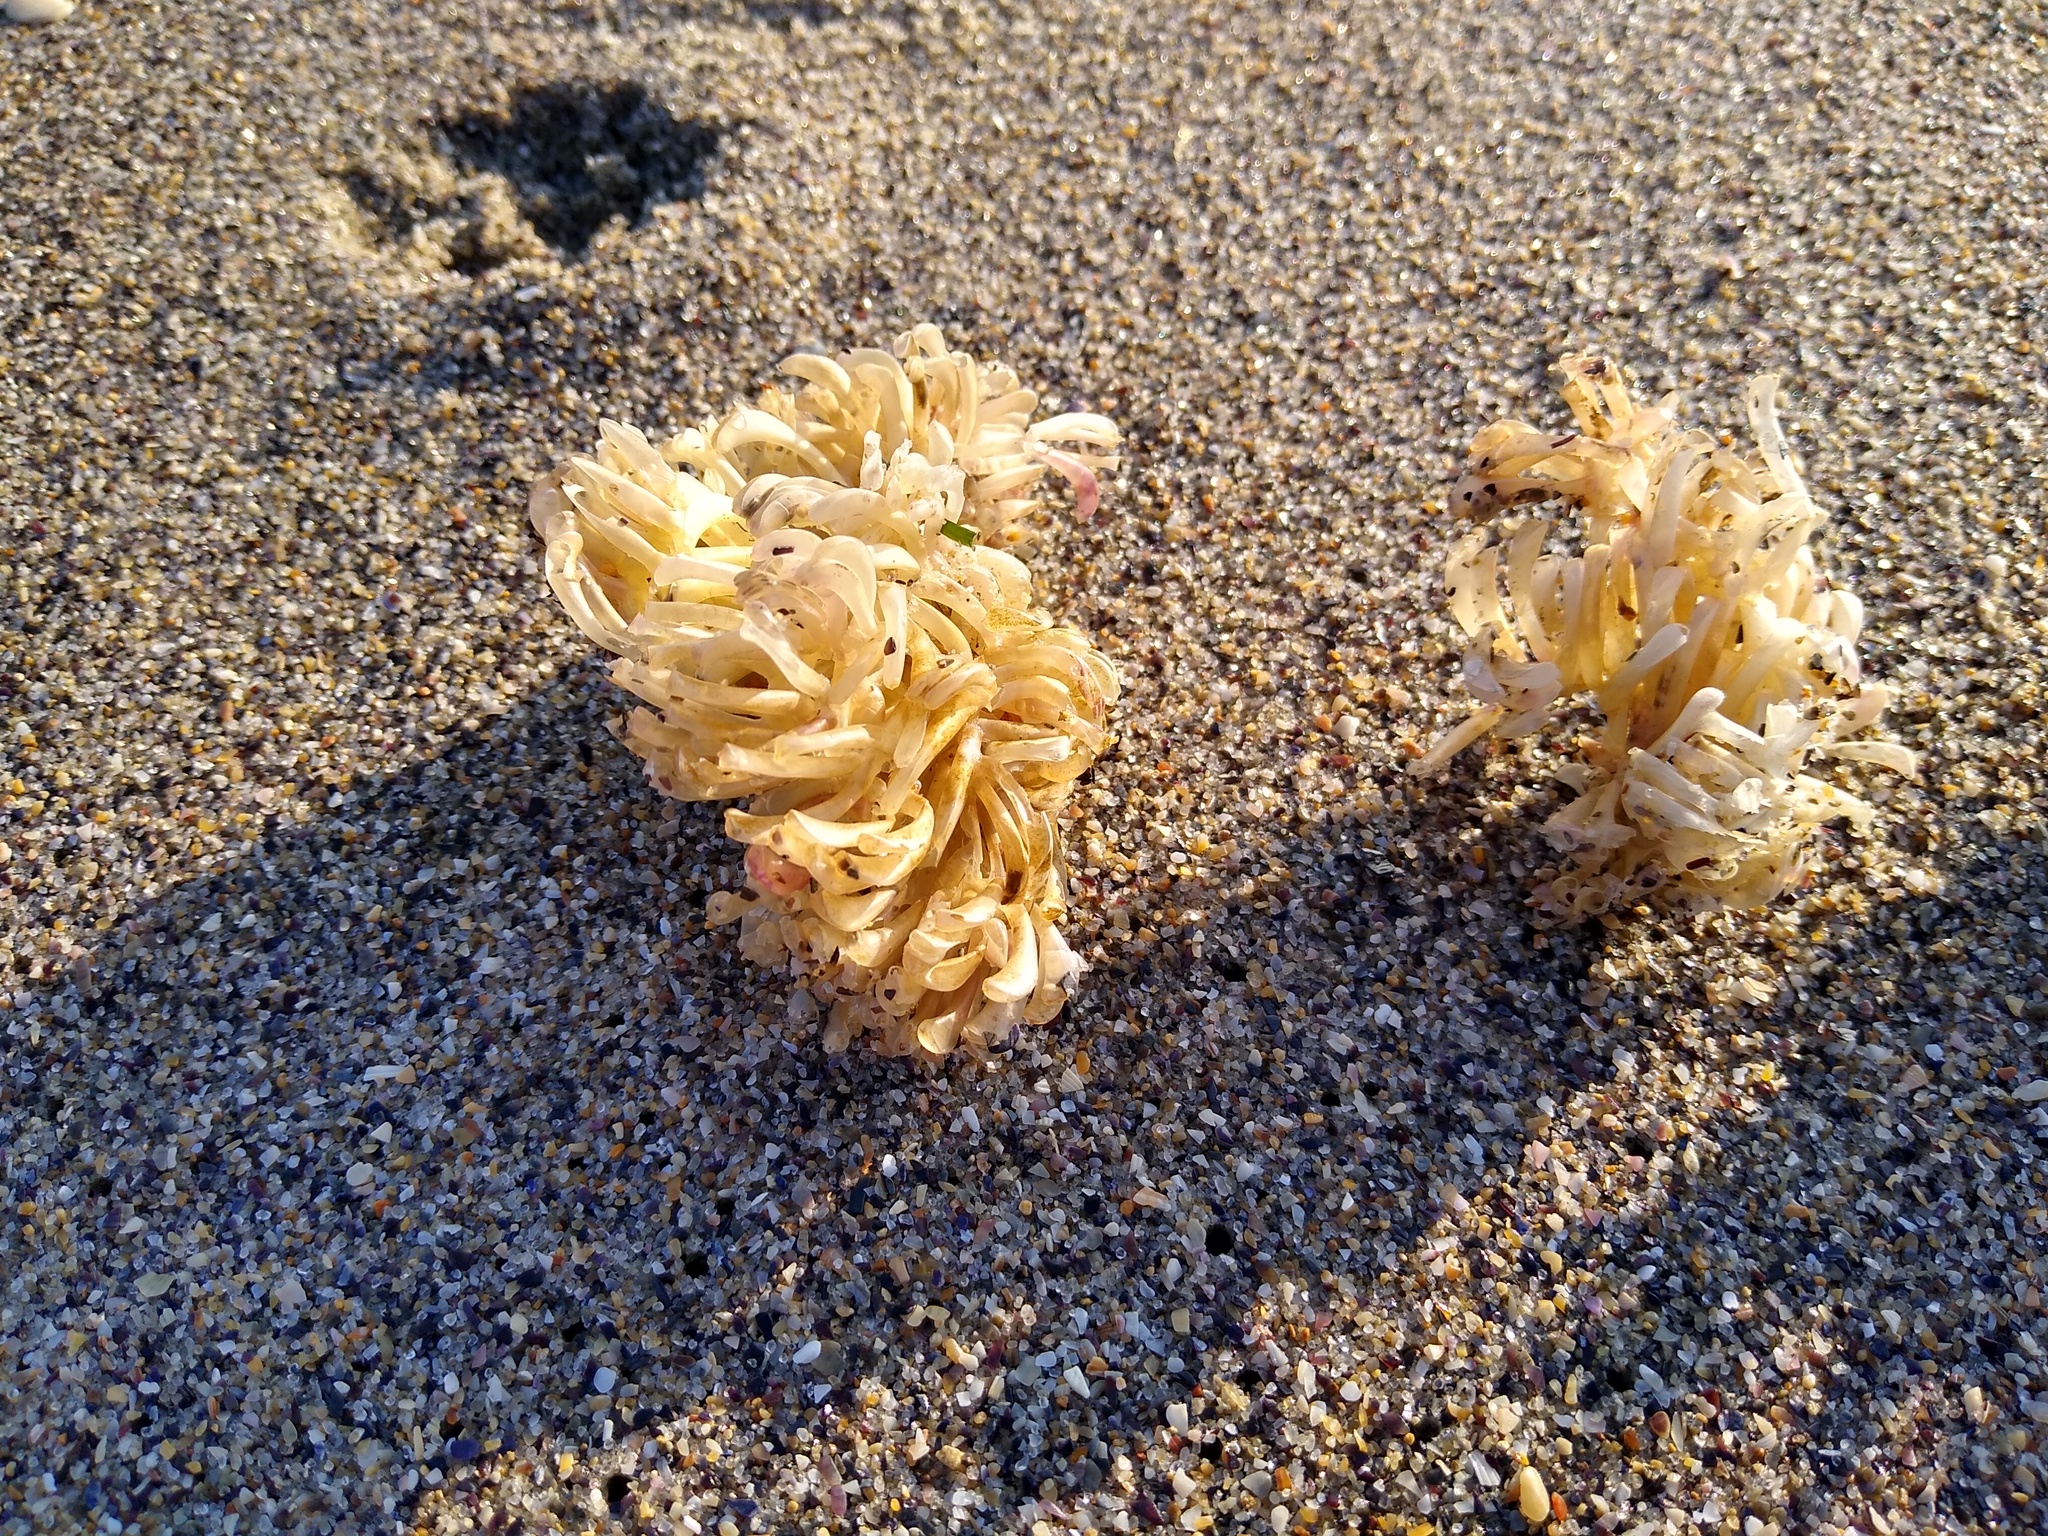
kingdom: Animalia
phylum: Mollusca
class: Gastropoda
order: Neogastropoda
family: Muricidae
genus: Rapana
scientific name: Rapana venosa
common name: Veined rapa whelk
